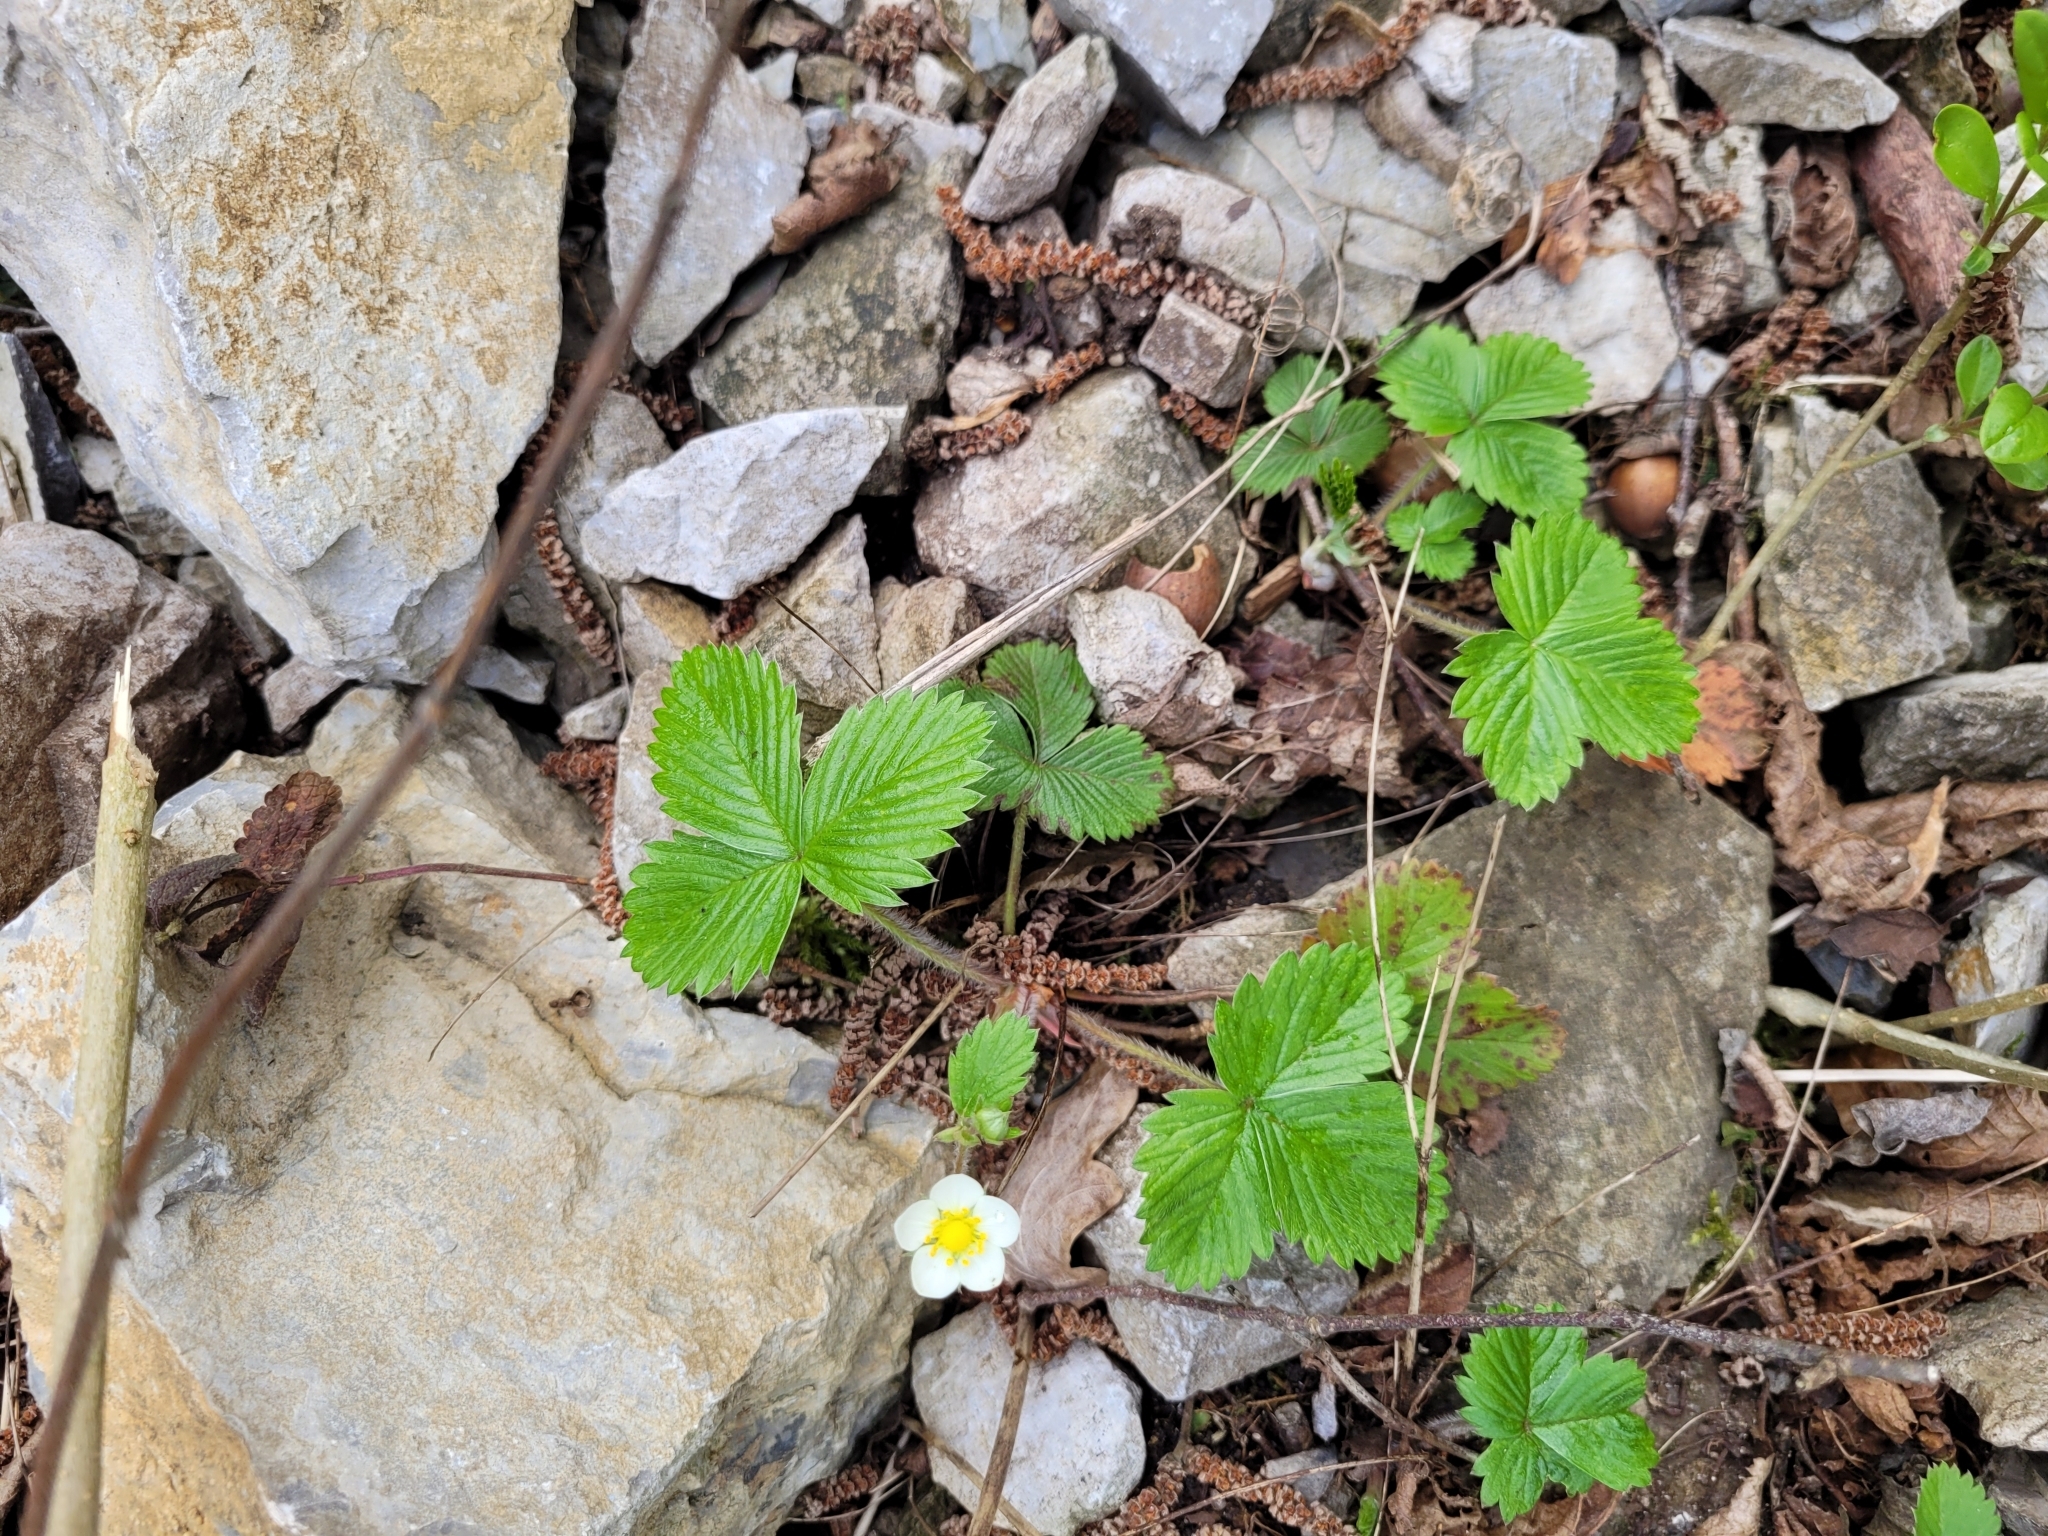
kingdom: Plantae
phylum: Tracheophyta
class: Magnoliopsida
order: Rosales
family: Rosaceae
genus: Fragaria
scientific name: Fragaria vesca
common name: Wild strawberry
